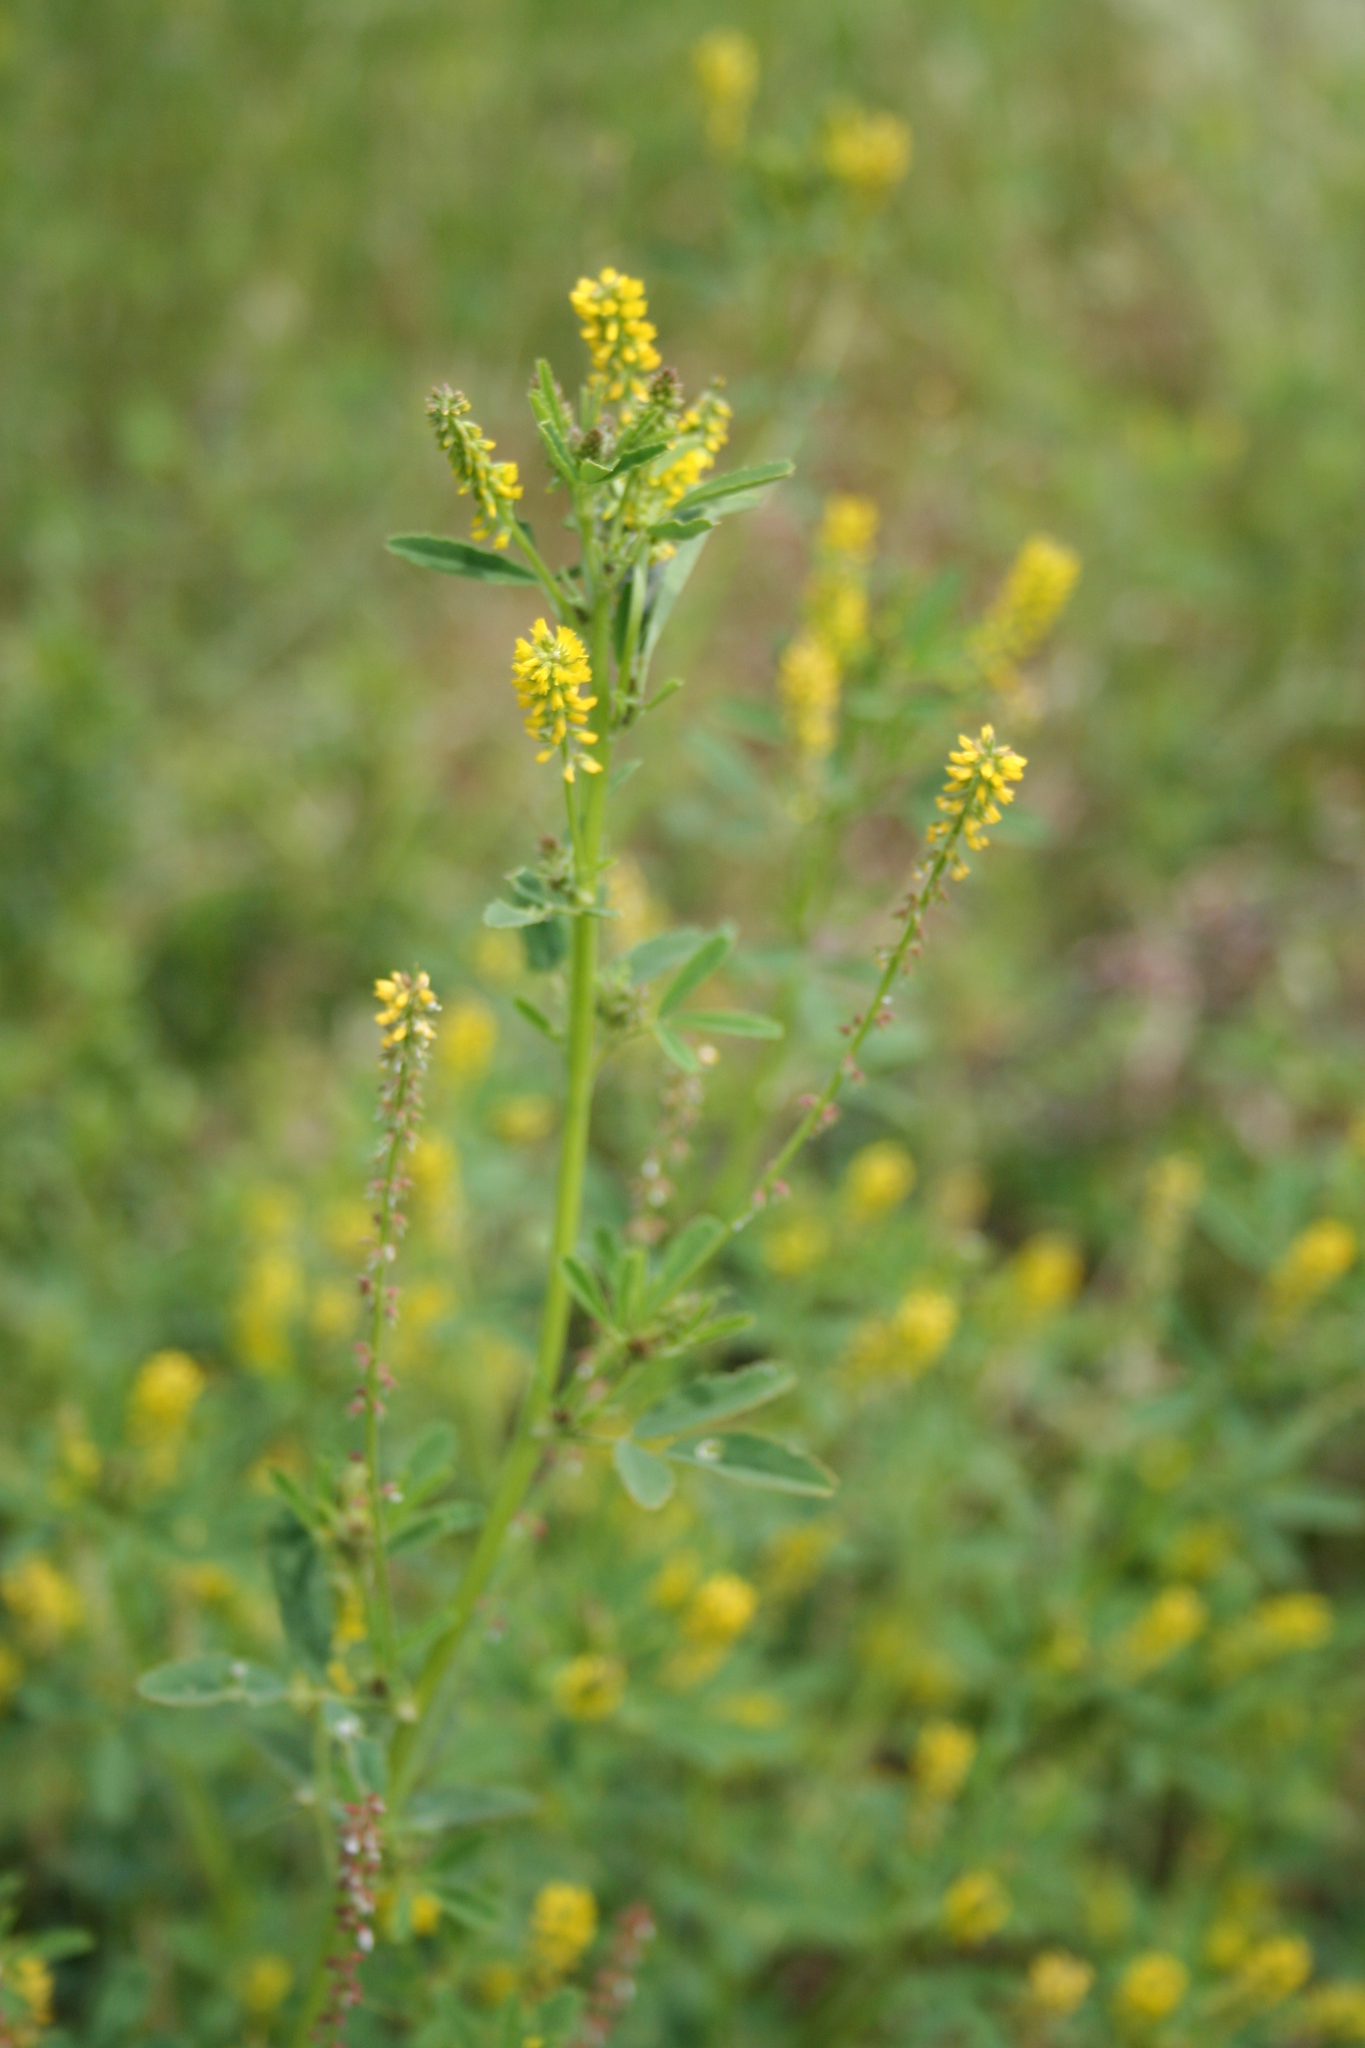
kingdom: Plantae
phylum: Tracheophyta
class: Magnoliopsida
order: Fabales
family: Fabaceae
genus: Melilotus
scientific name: Melilotus indicus
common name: Small melilot
